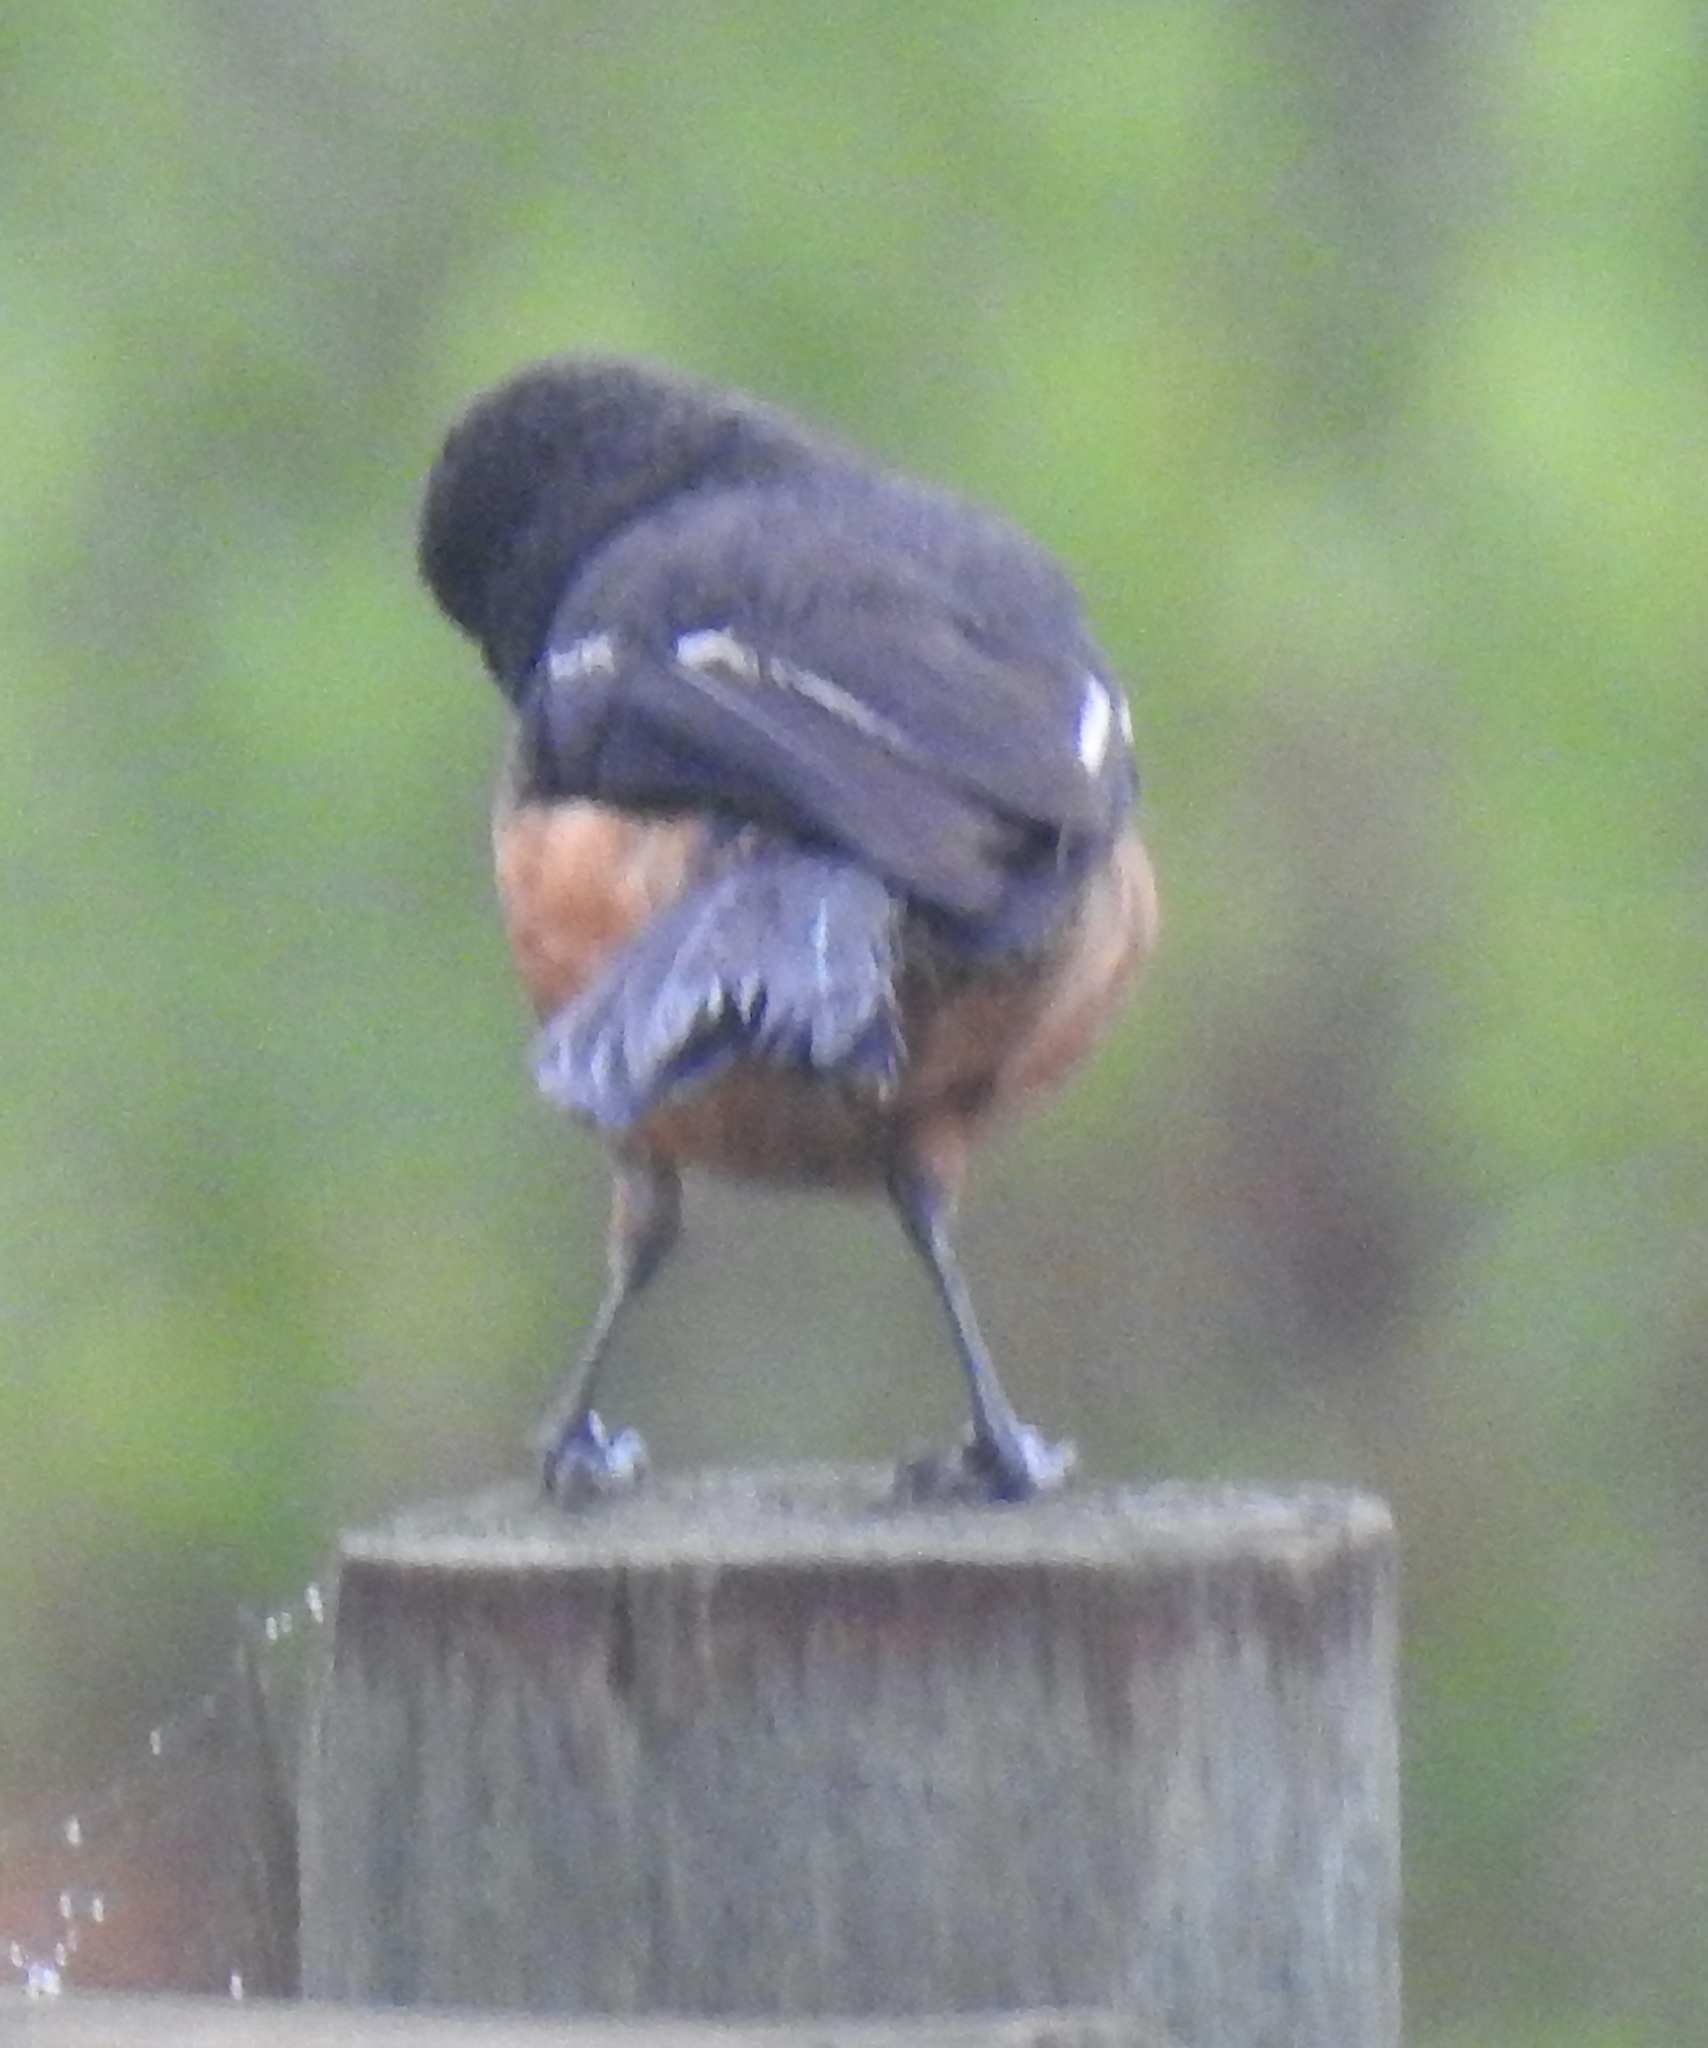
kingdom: Animalia
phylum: Chordata
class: Aves
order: Passeriformes
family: Malaconotidae
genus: Laniarius
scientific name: Laniarius ferrugineus
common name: Southern boubou
